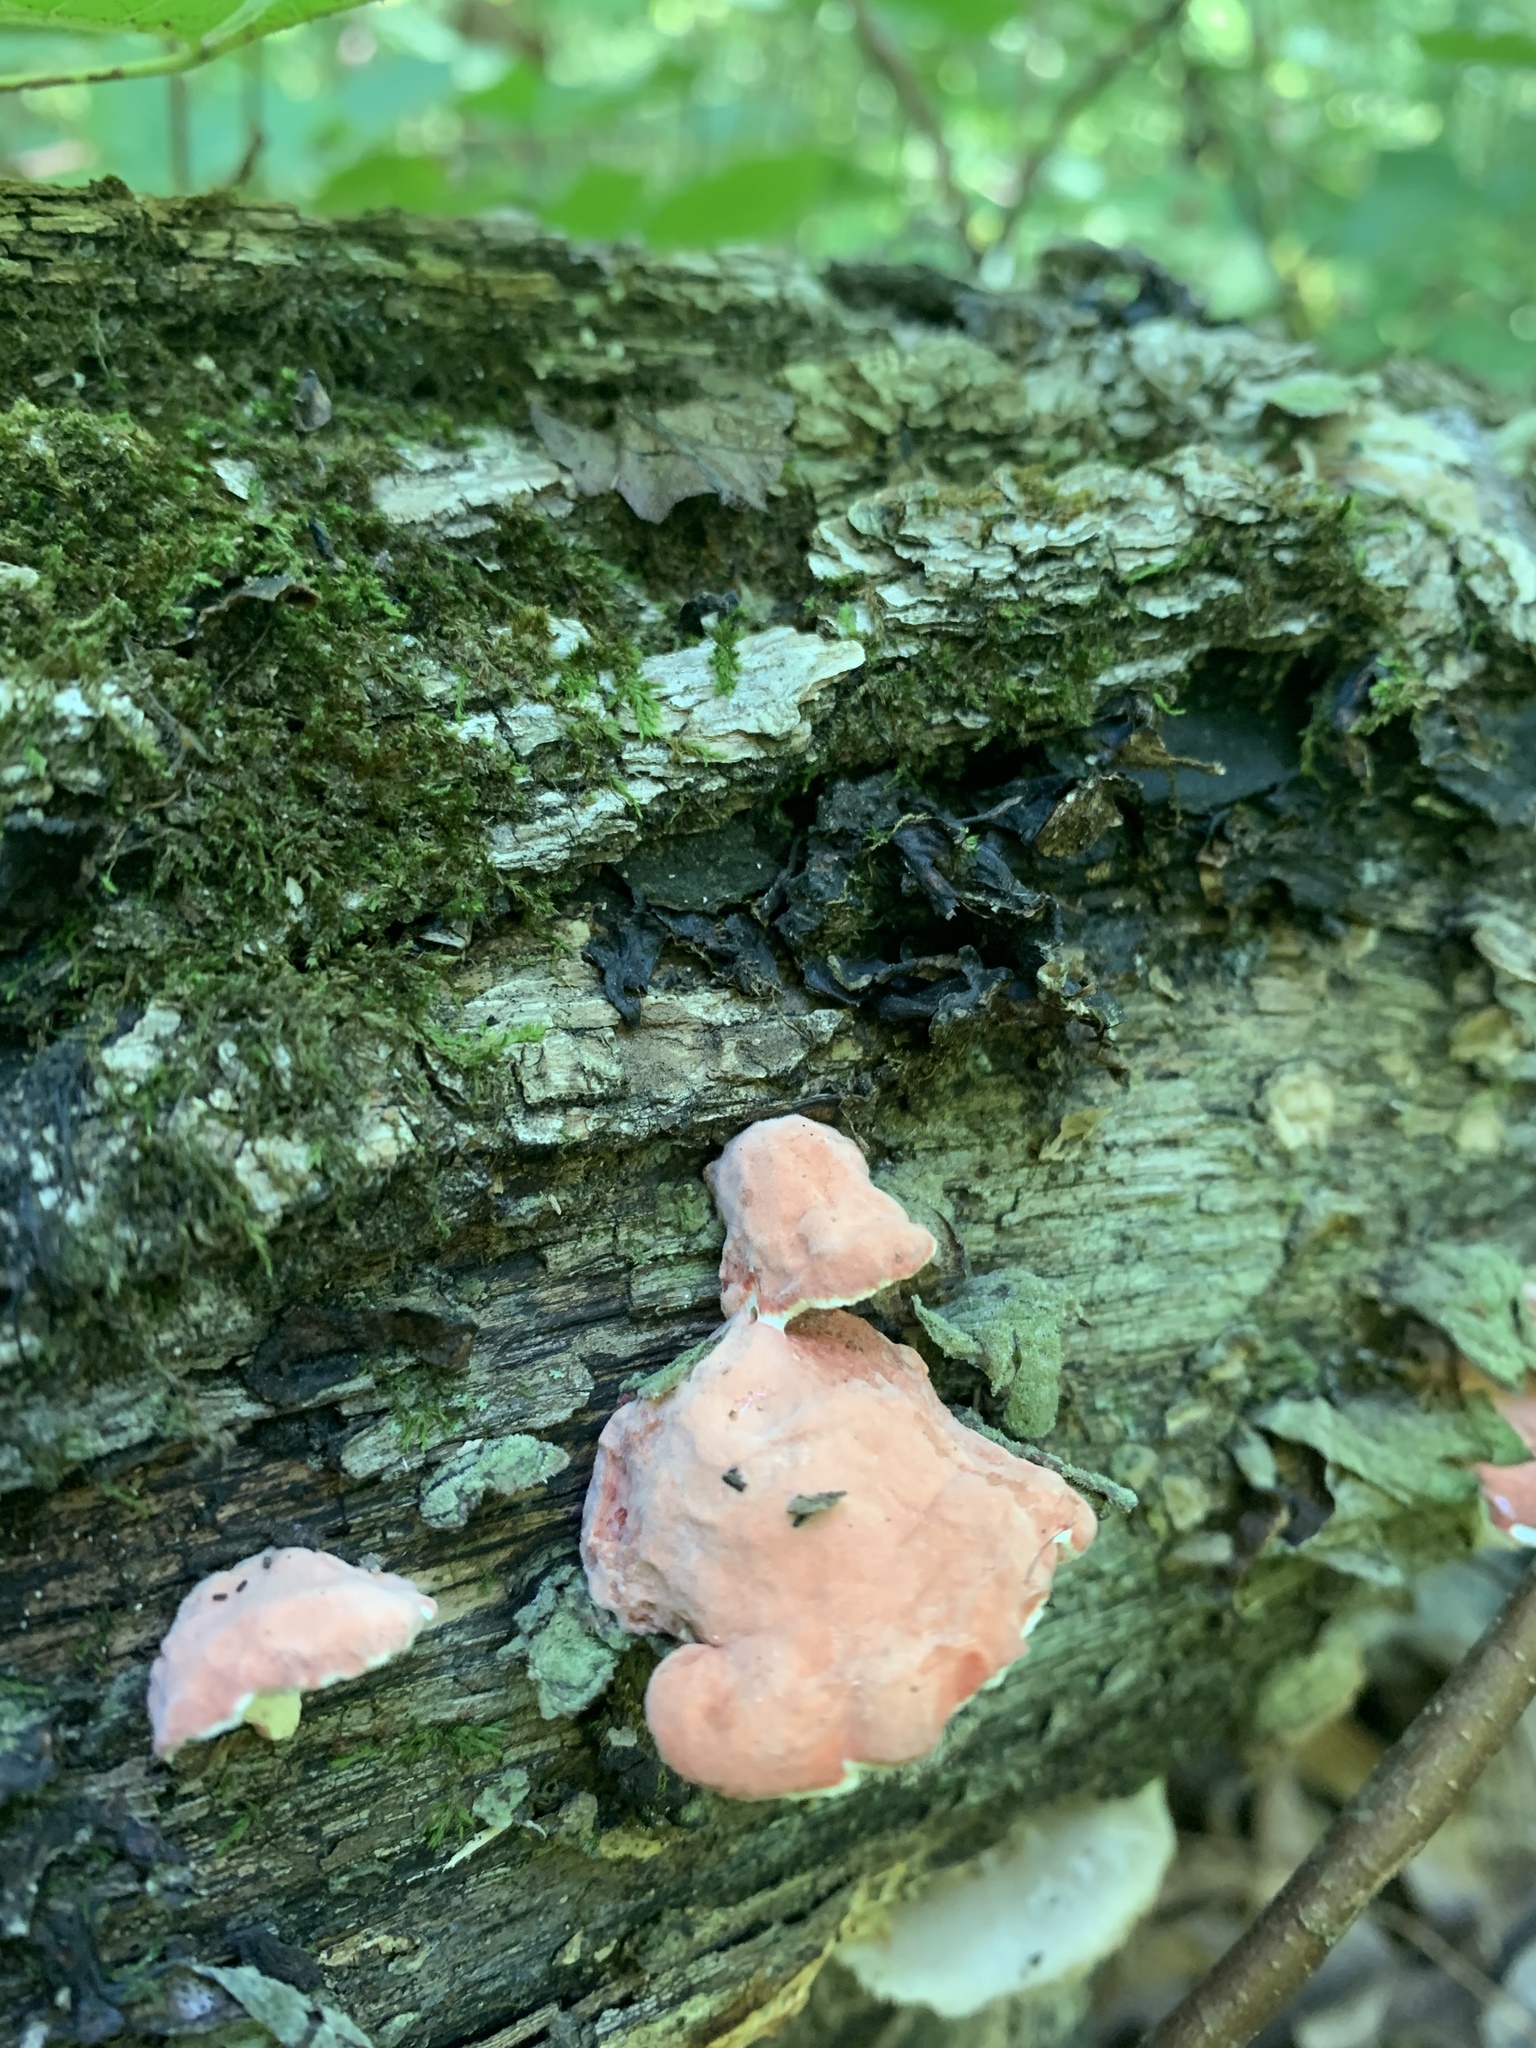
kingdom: Fungi
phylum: Basidiomycota
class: Agaricomycetes
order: Polyporales
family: Irpicaceae
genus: Byssomerulius
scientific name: Byssomerulius incarnatus
